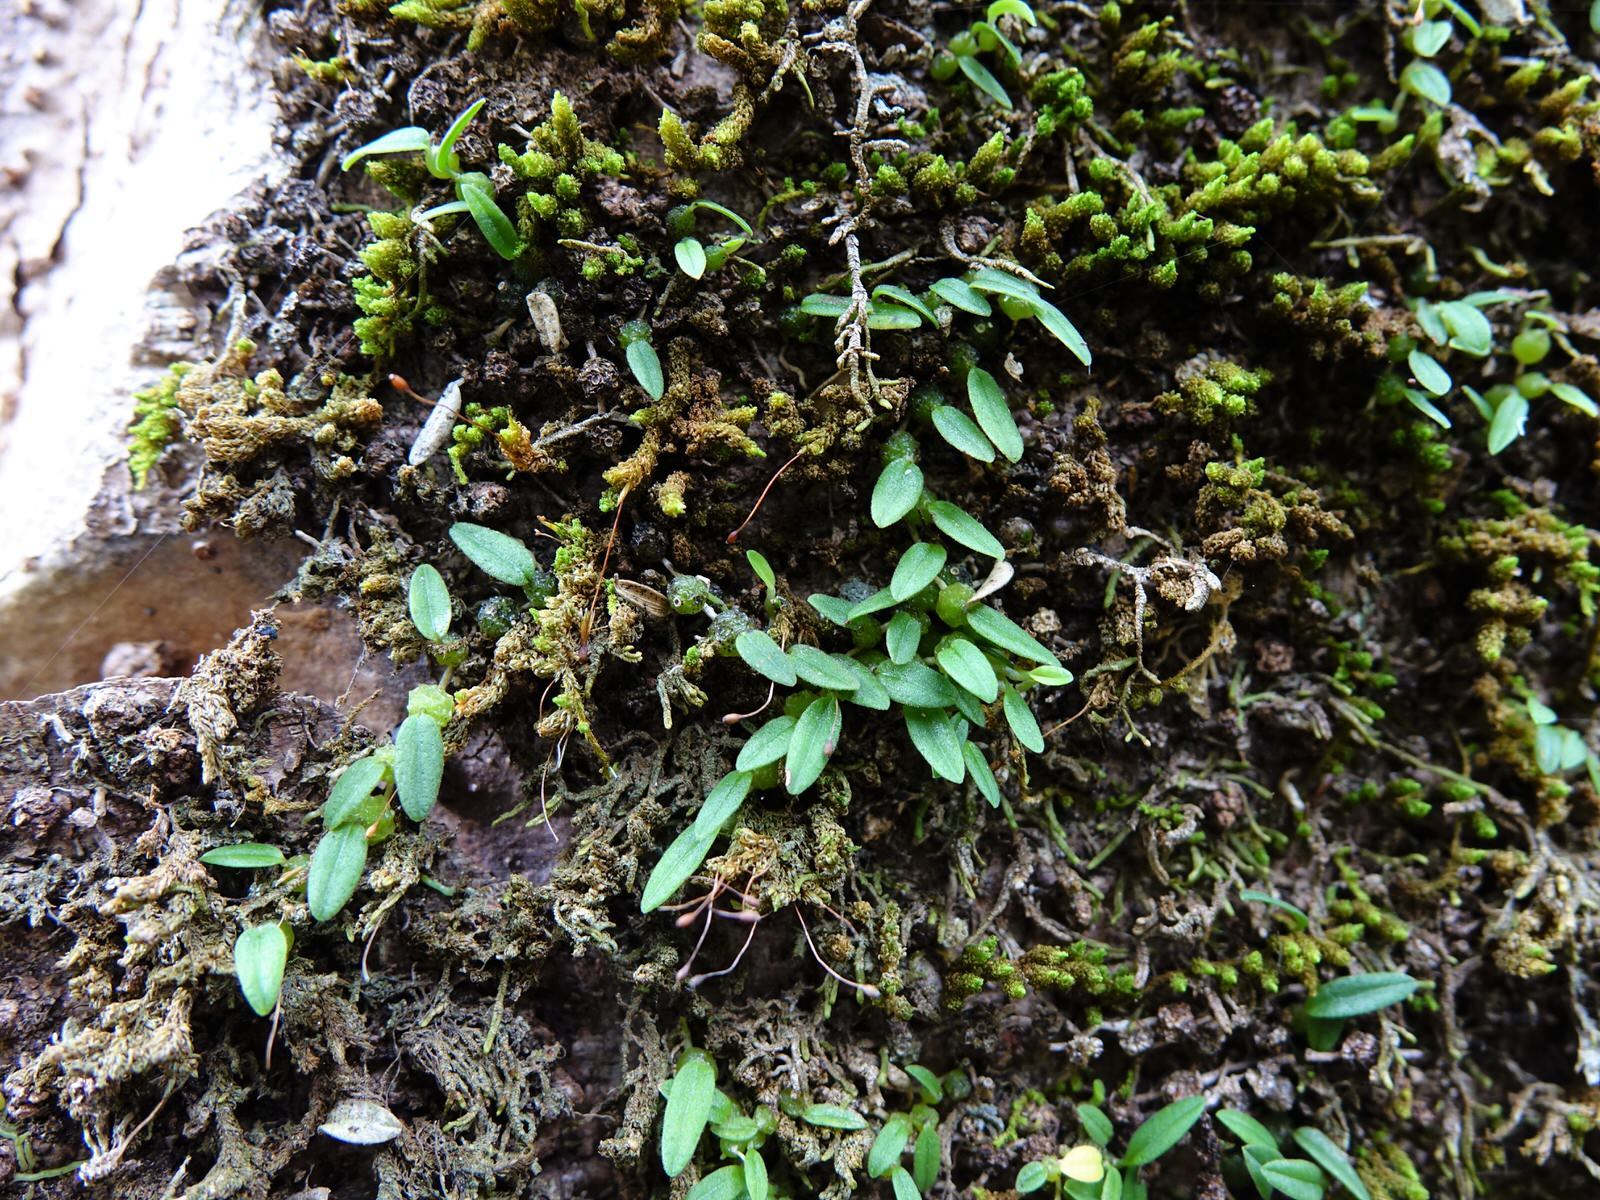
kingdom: Plantae
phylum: Tracheophyta
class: Liliopsida
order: Asparagales
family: Orchidaceae
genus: Bulbophyllum
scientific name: Bulbophyllum pygmaeum
